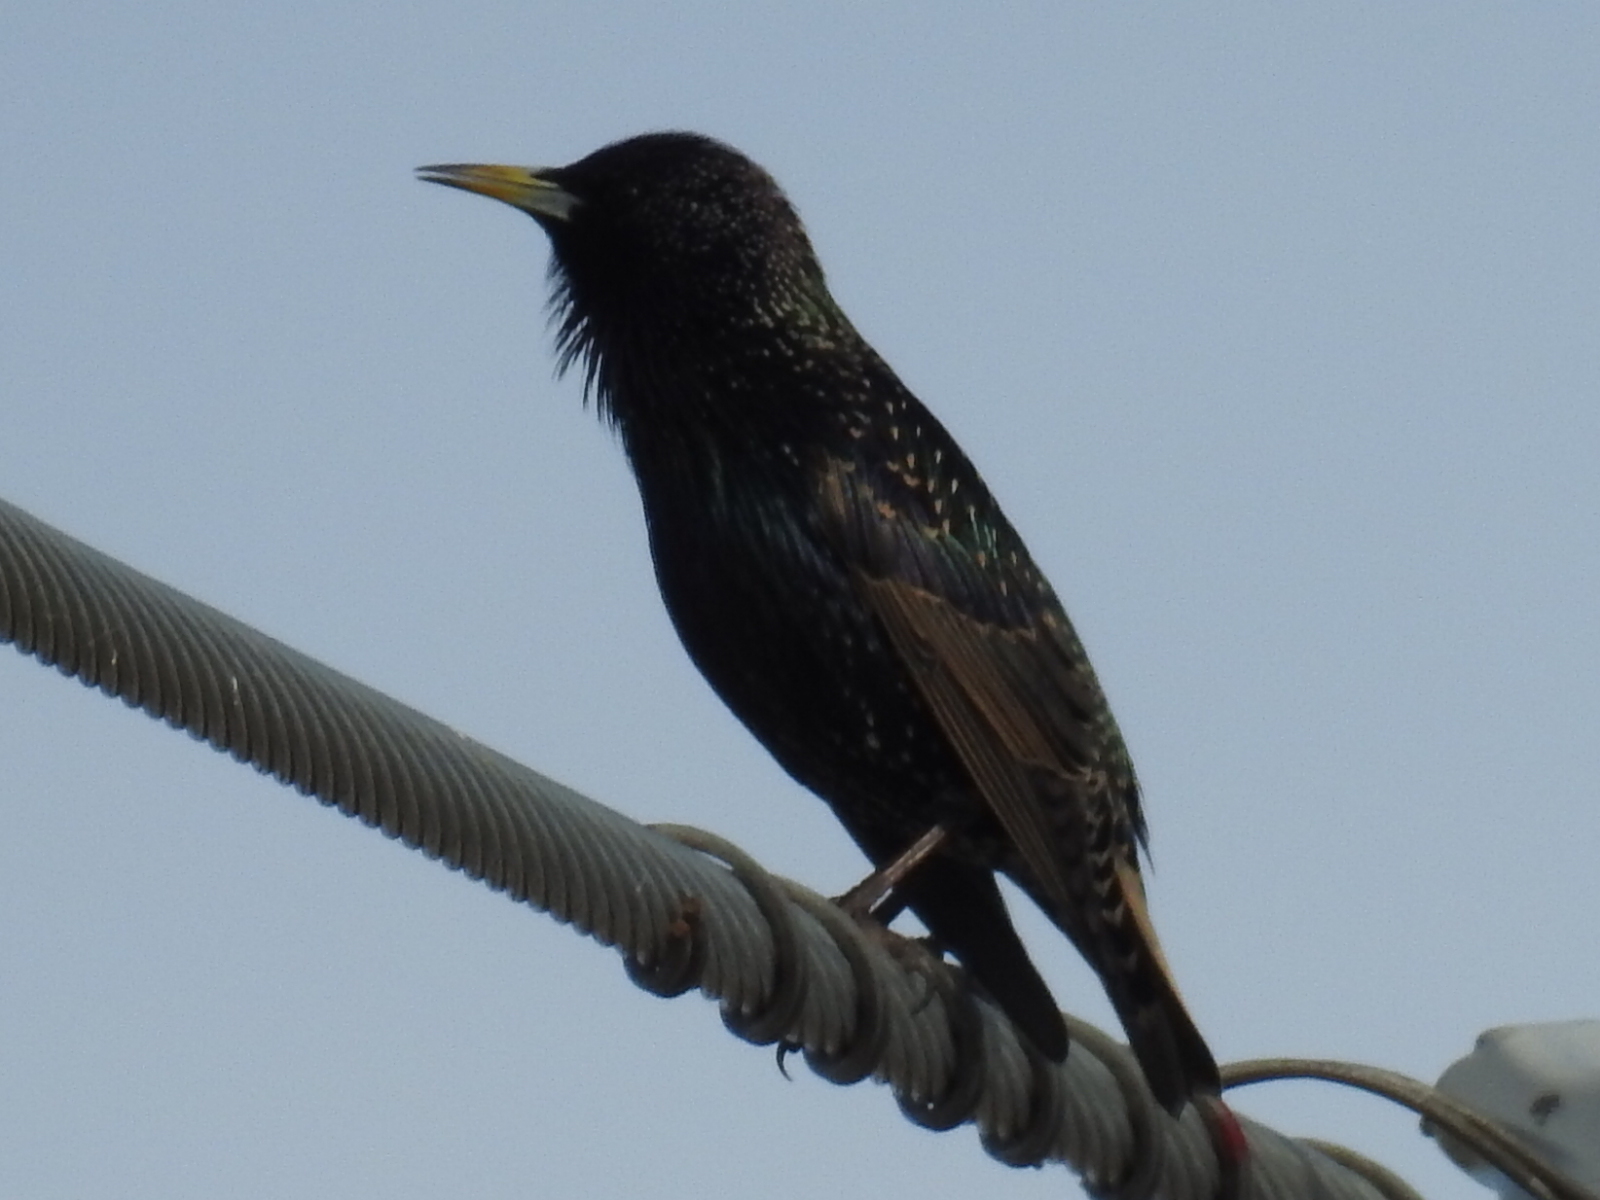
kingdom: Animalia
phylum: Chordata
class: Aves
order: Passeriformes
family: Sturnidae
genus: Sturnus
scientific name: Sturnus vulgaris
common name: Common starling
